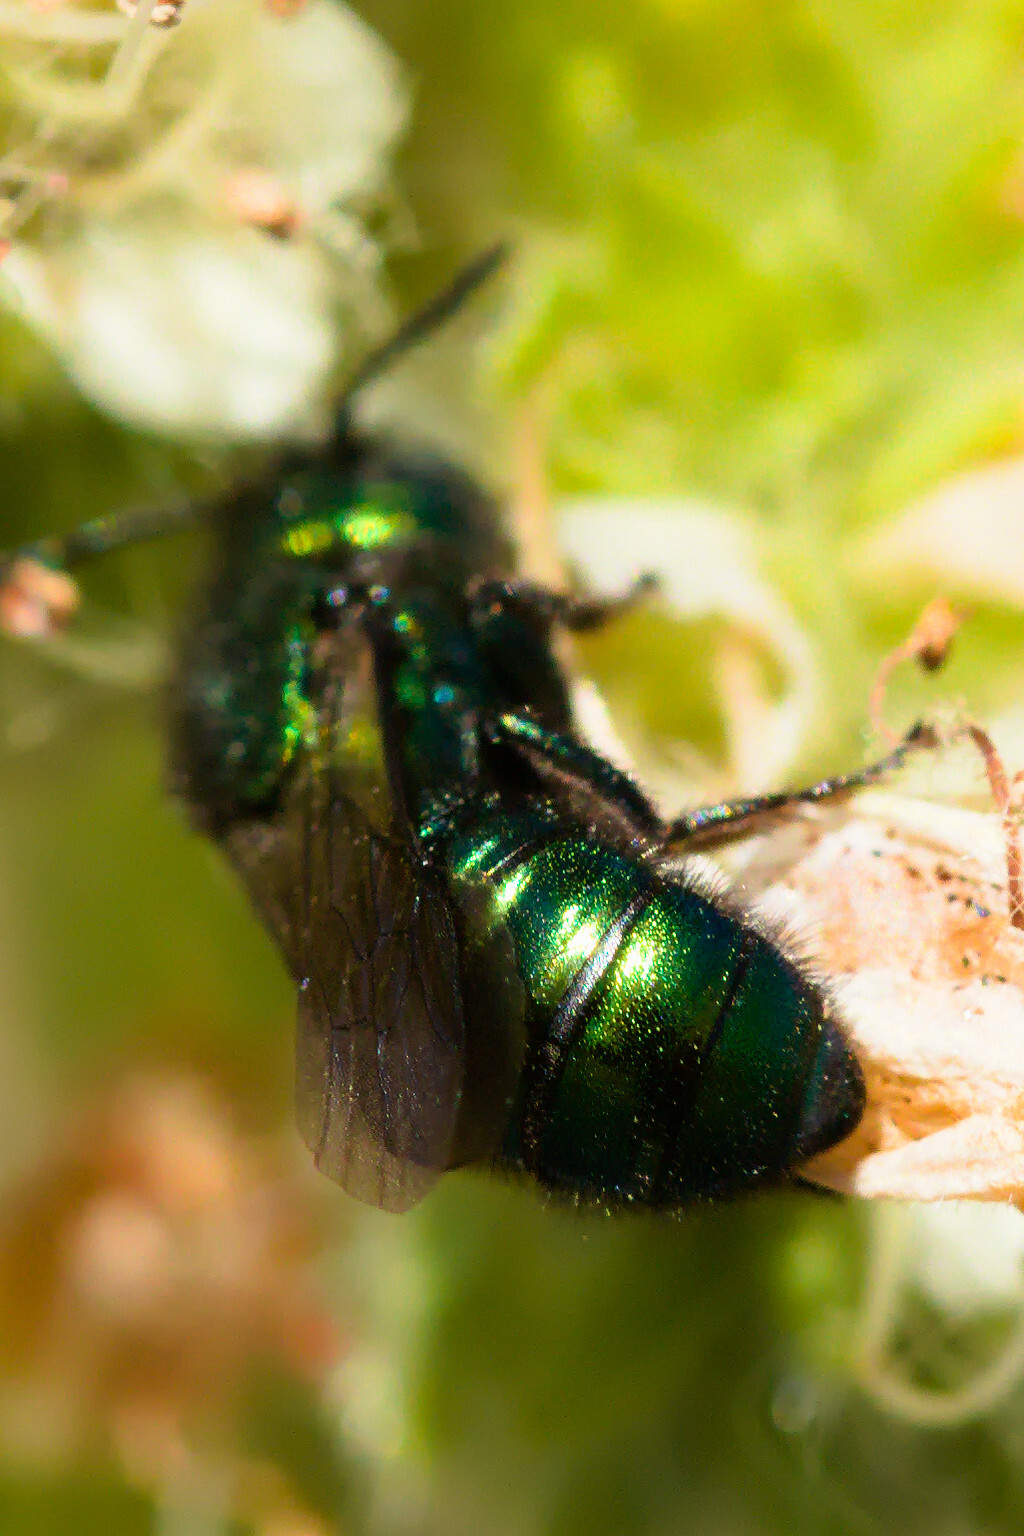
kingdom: Animalia
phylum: Arthropoda
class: Insecta
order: Hymenoptera
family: Megachilidae
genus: Hoplitis
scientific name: Hoplitis fulgida
